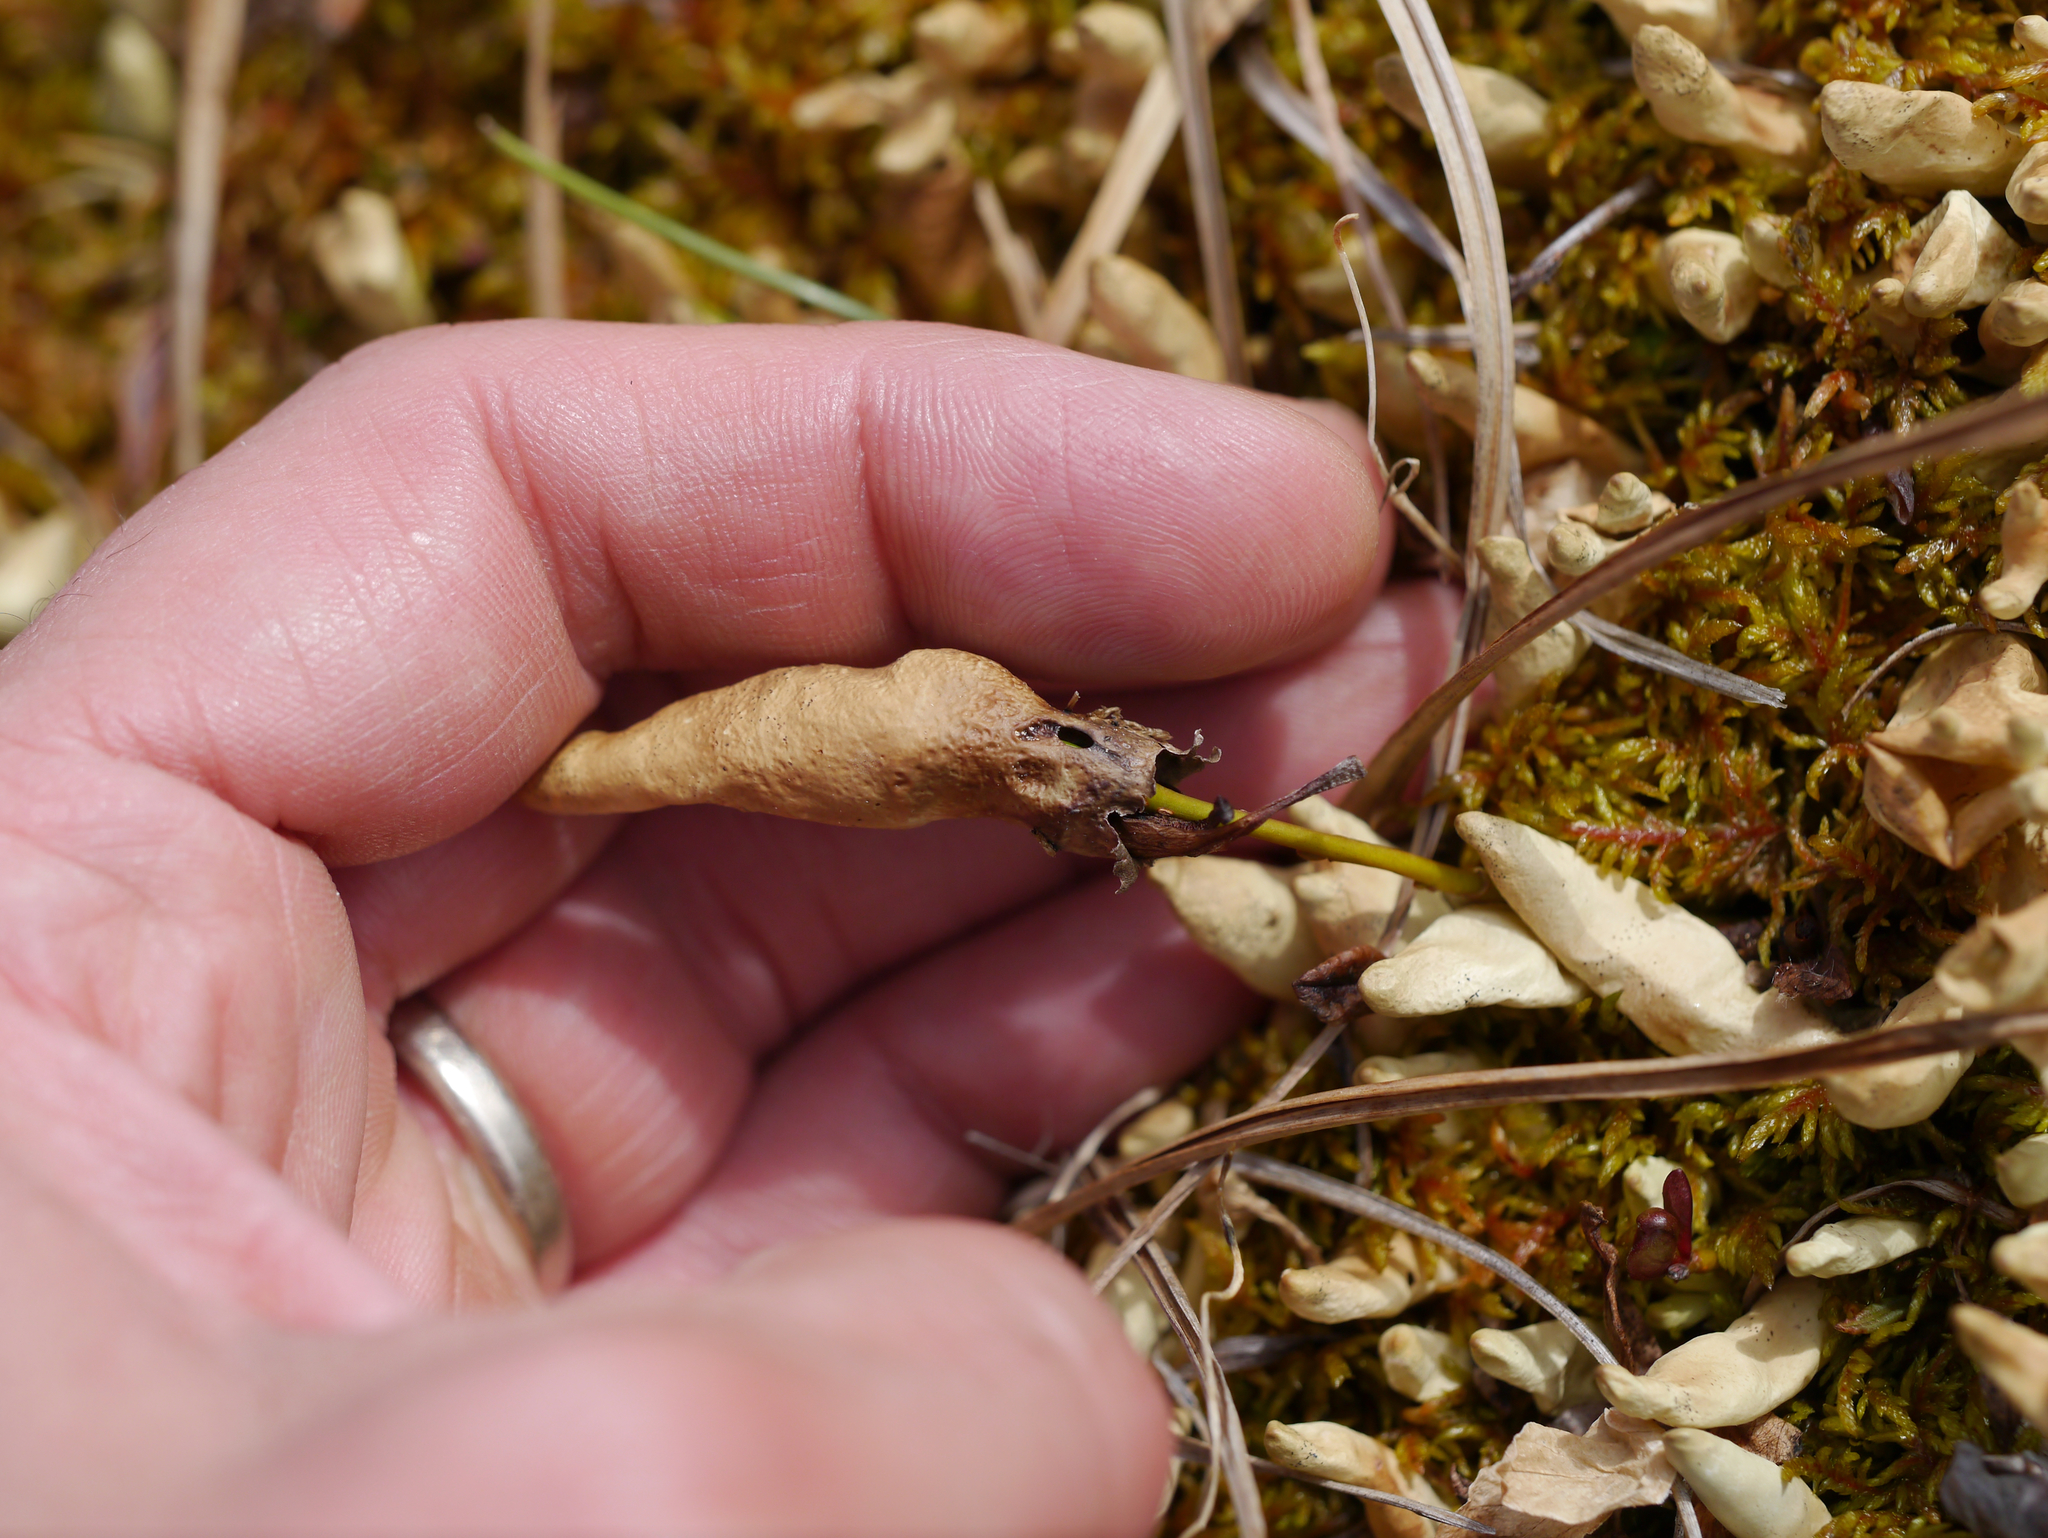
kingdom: Fungi
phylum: Ascomycota
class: Lecanoromycetes
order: Lecanorales
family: Parmeliaceae
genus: Dactylina
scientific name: Dactylina arctica
